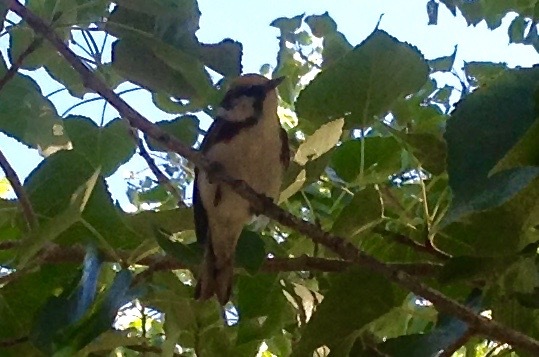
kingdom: Animalia
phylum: Chordata
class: Aves
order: Passeriformes
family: Parulidae
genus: Setophaga
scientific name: Setophaga pensylvanica
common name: Chestnut-sided warbler
